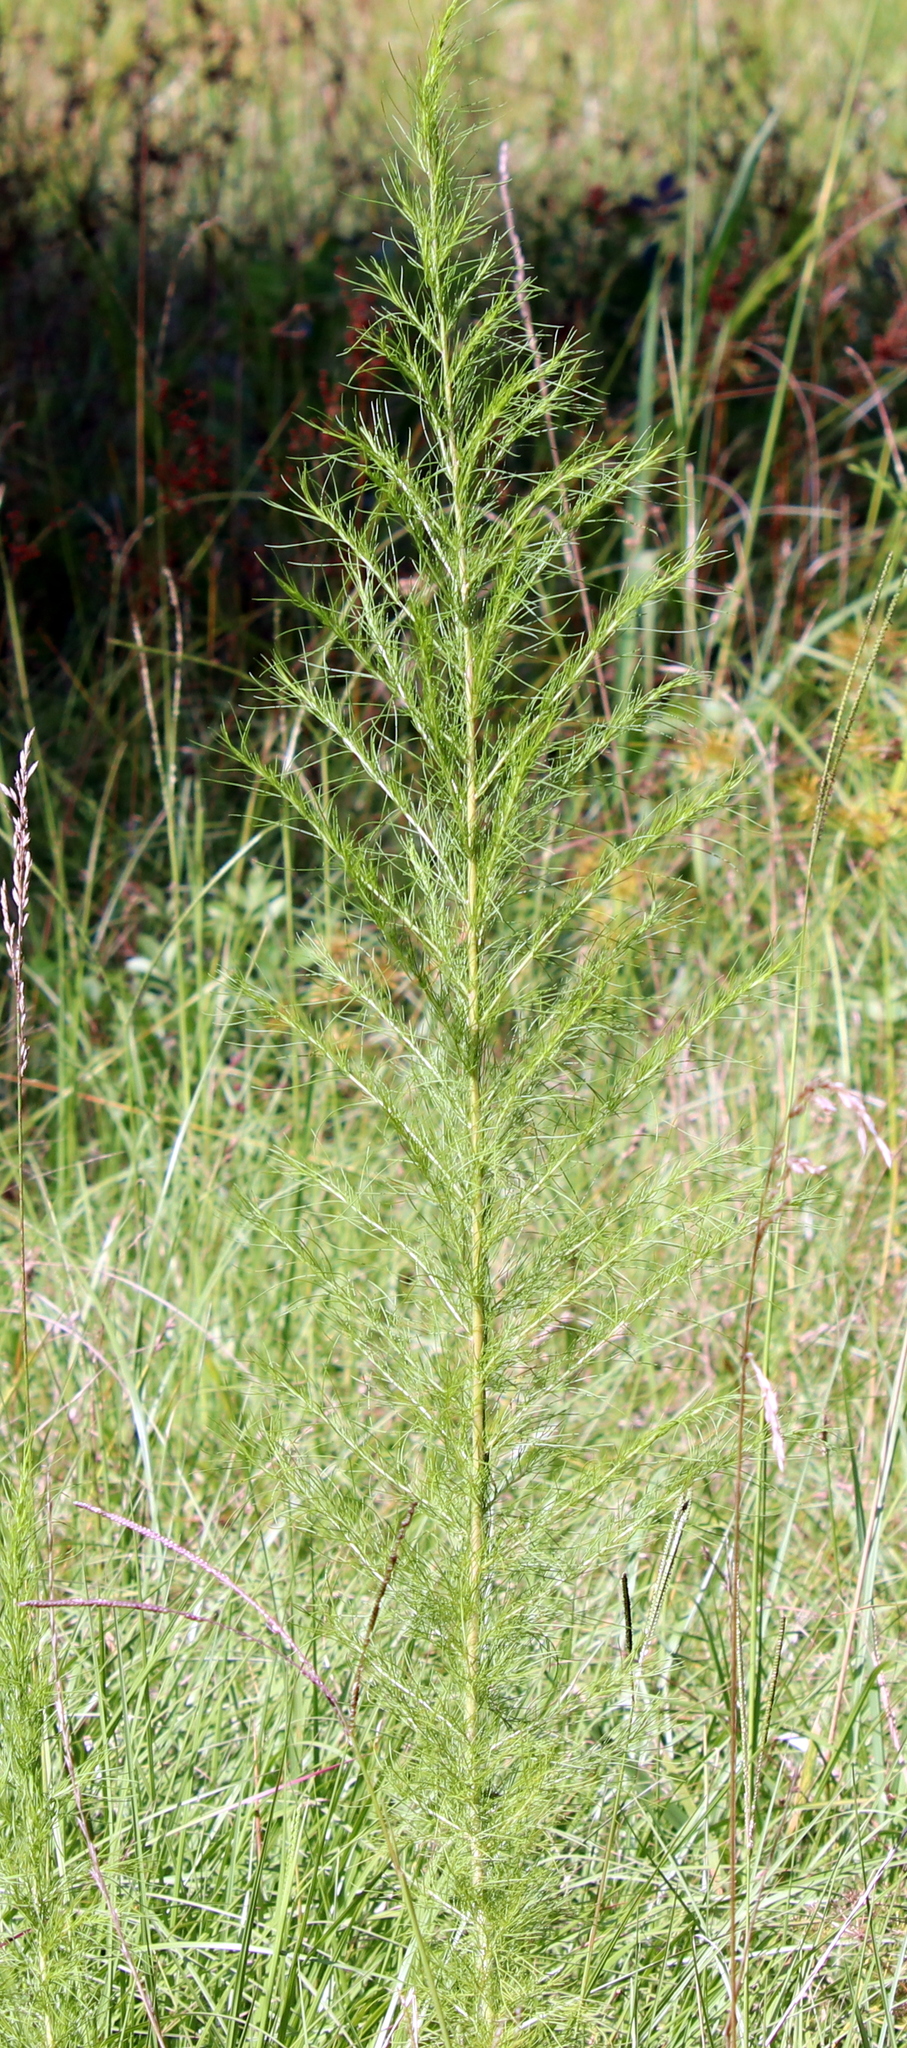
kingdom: Plantae
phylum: Tracheophyta
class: Magnoliopsida
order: Asterales
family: Asteraceae
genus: Eupatorium
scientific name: Eupatorium capillifolium
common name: Dog-fennel
